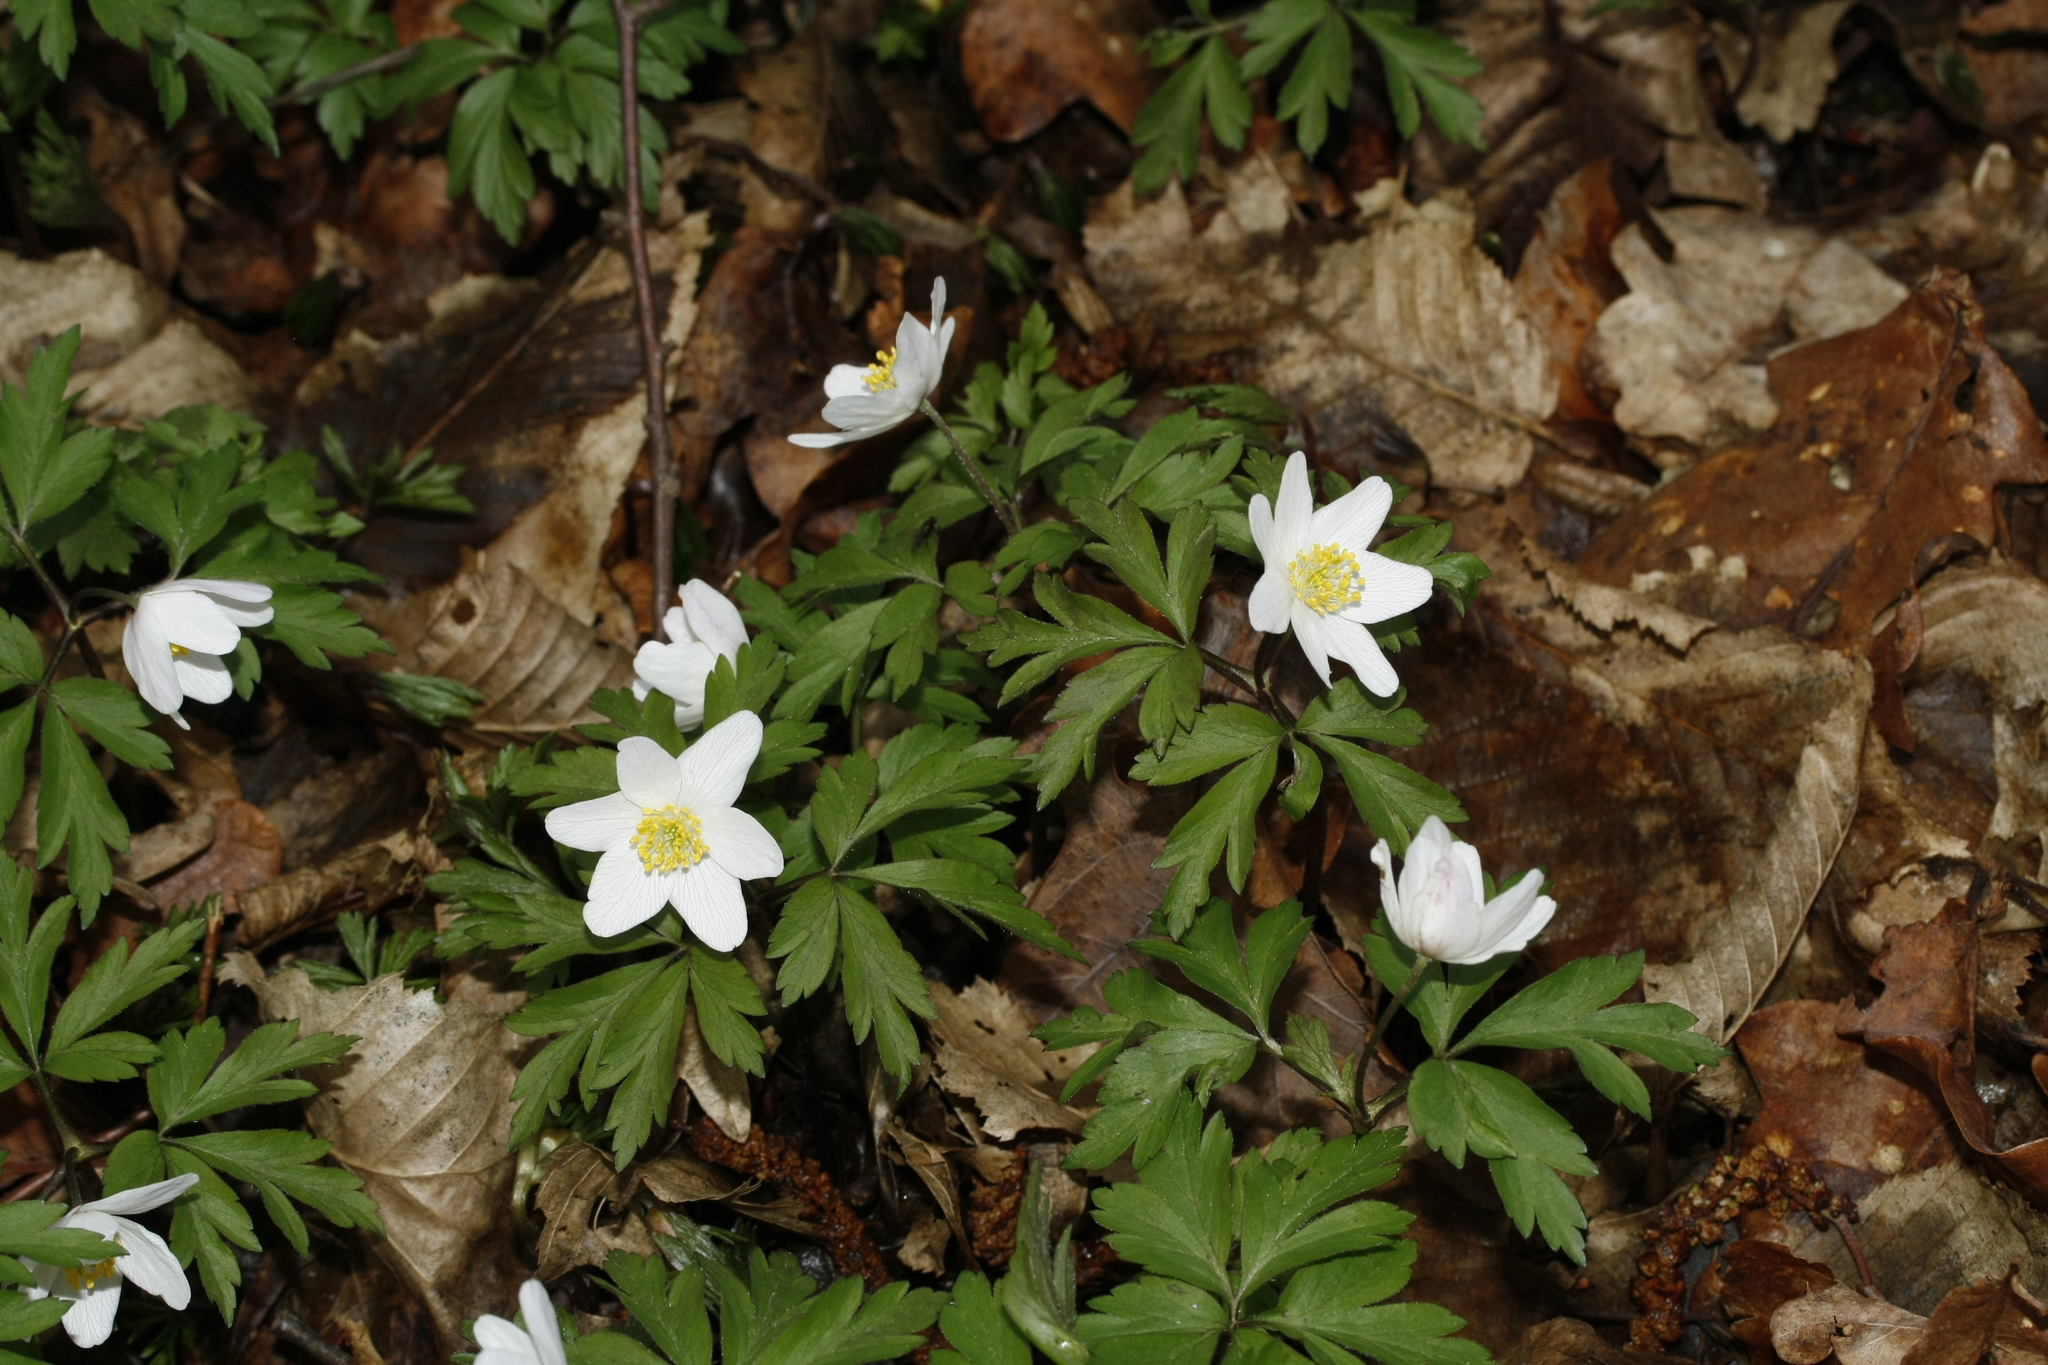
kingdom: Plantae
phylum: Tracheophyta
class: Magnoliopsida
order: Ranunculales
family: Ranunculaceae
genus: Anemone
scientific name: Anemone nemorosa
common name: Wood anemone
